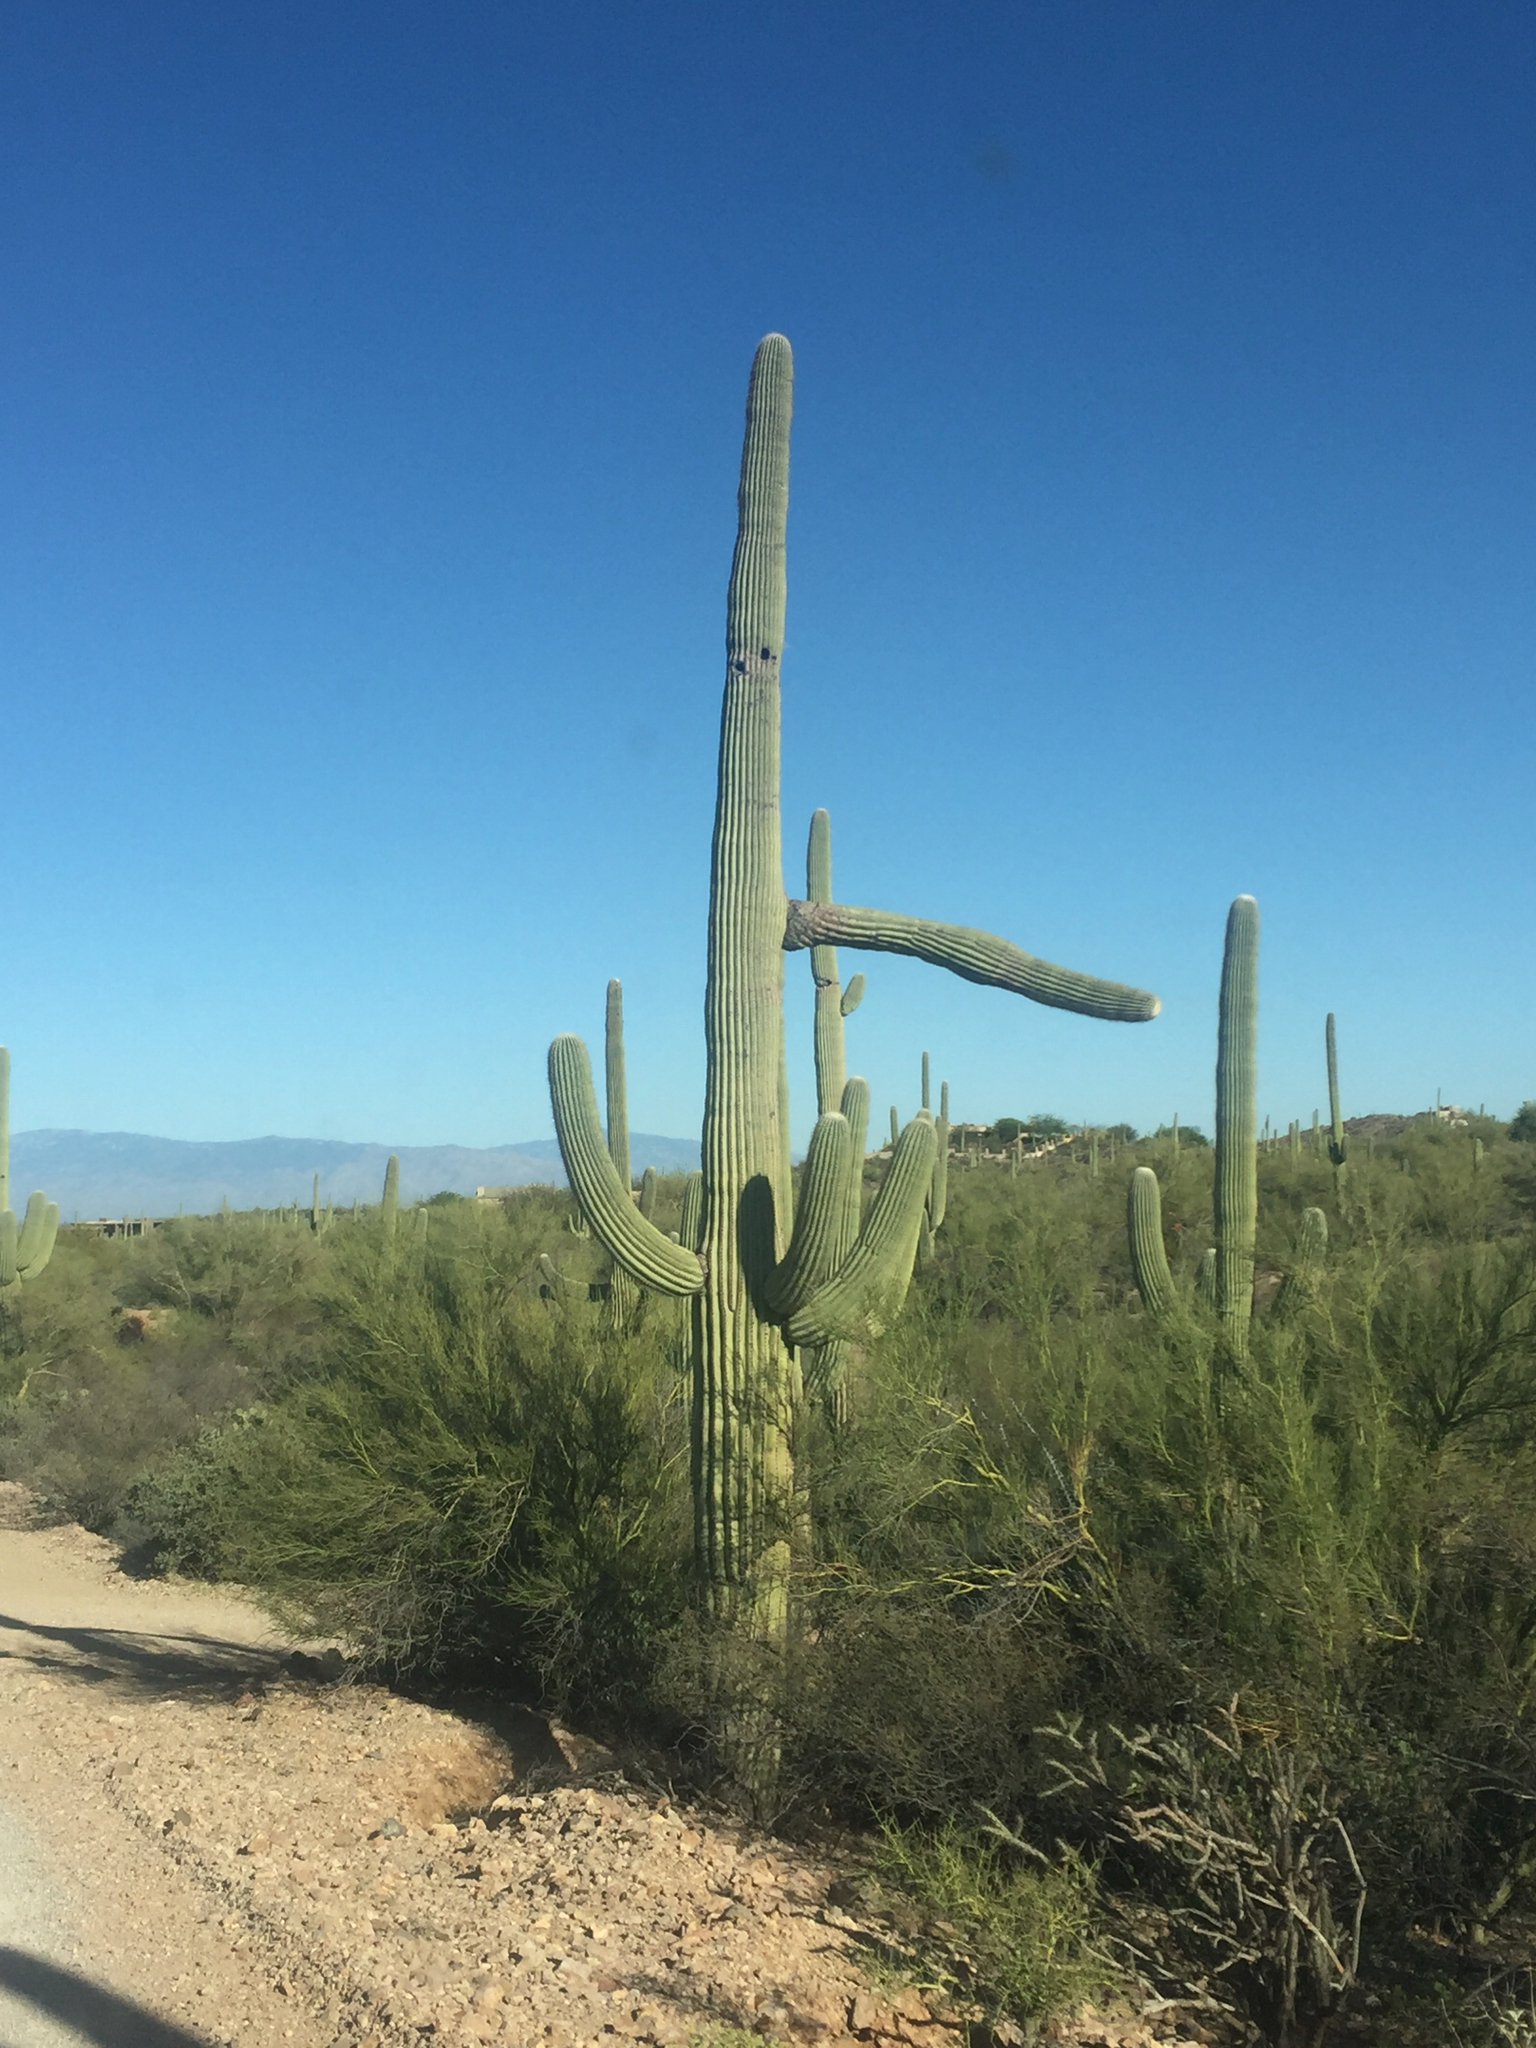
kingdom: Plantae
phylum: Tracheophyta
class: Magnoliopsida
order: Caryophyllales
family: Cactaceae
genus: Carnegiea
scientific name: Carnegiea gigantea
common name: Saguaro
